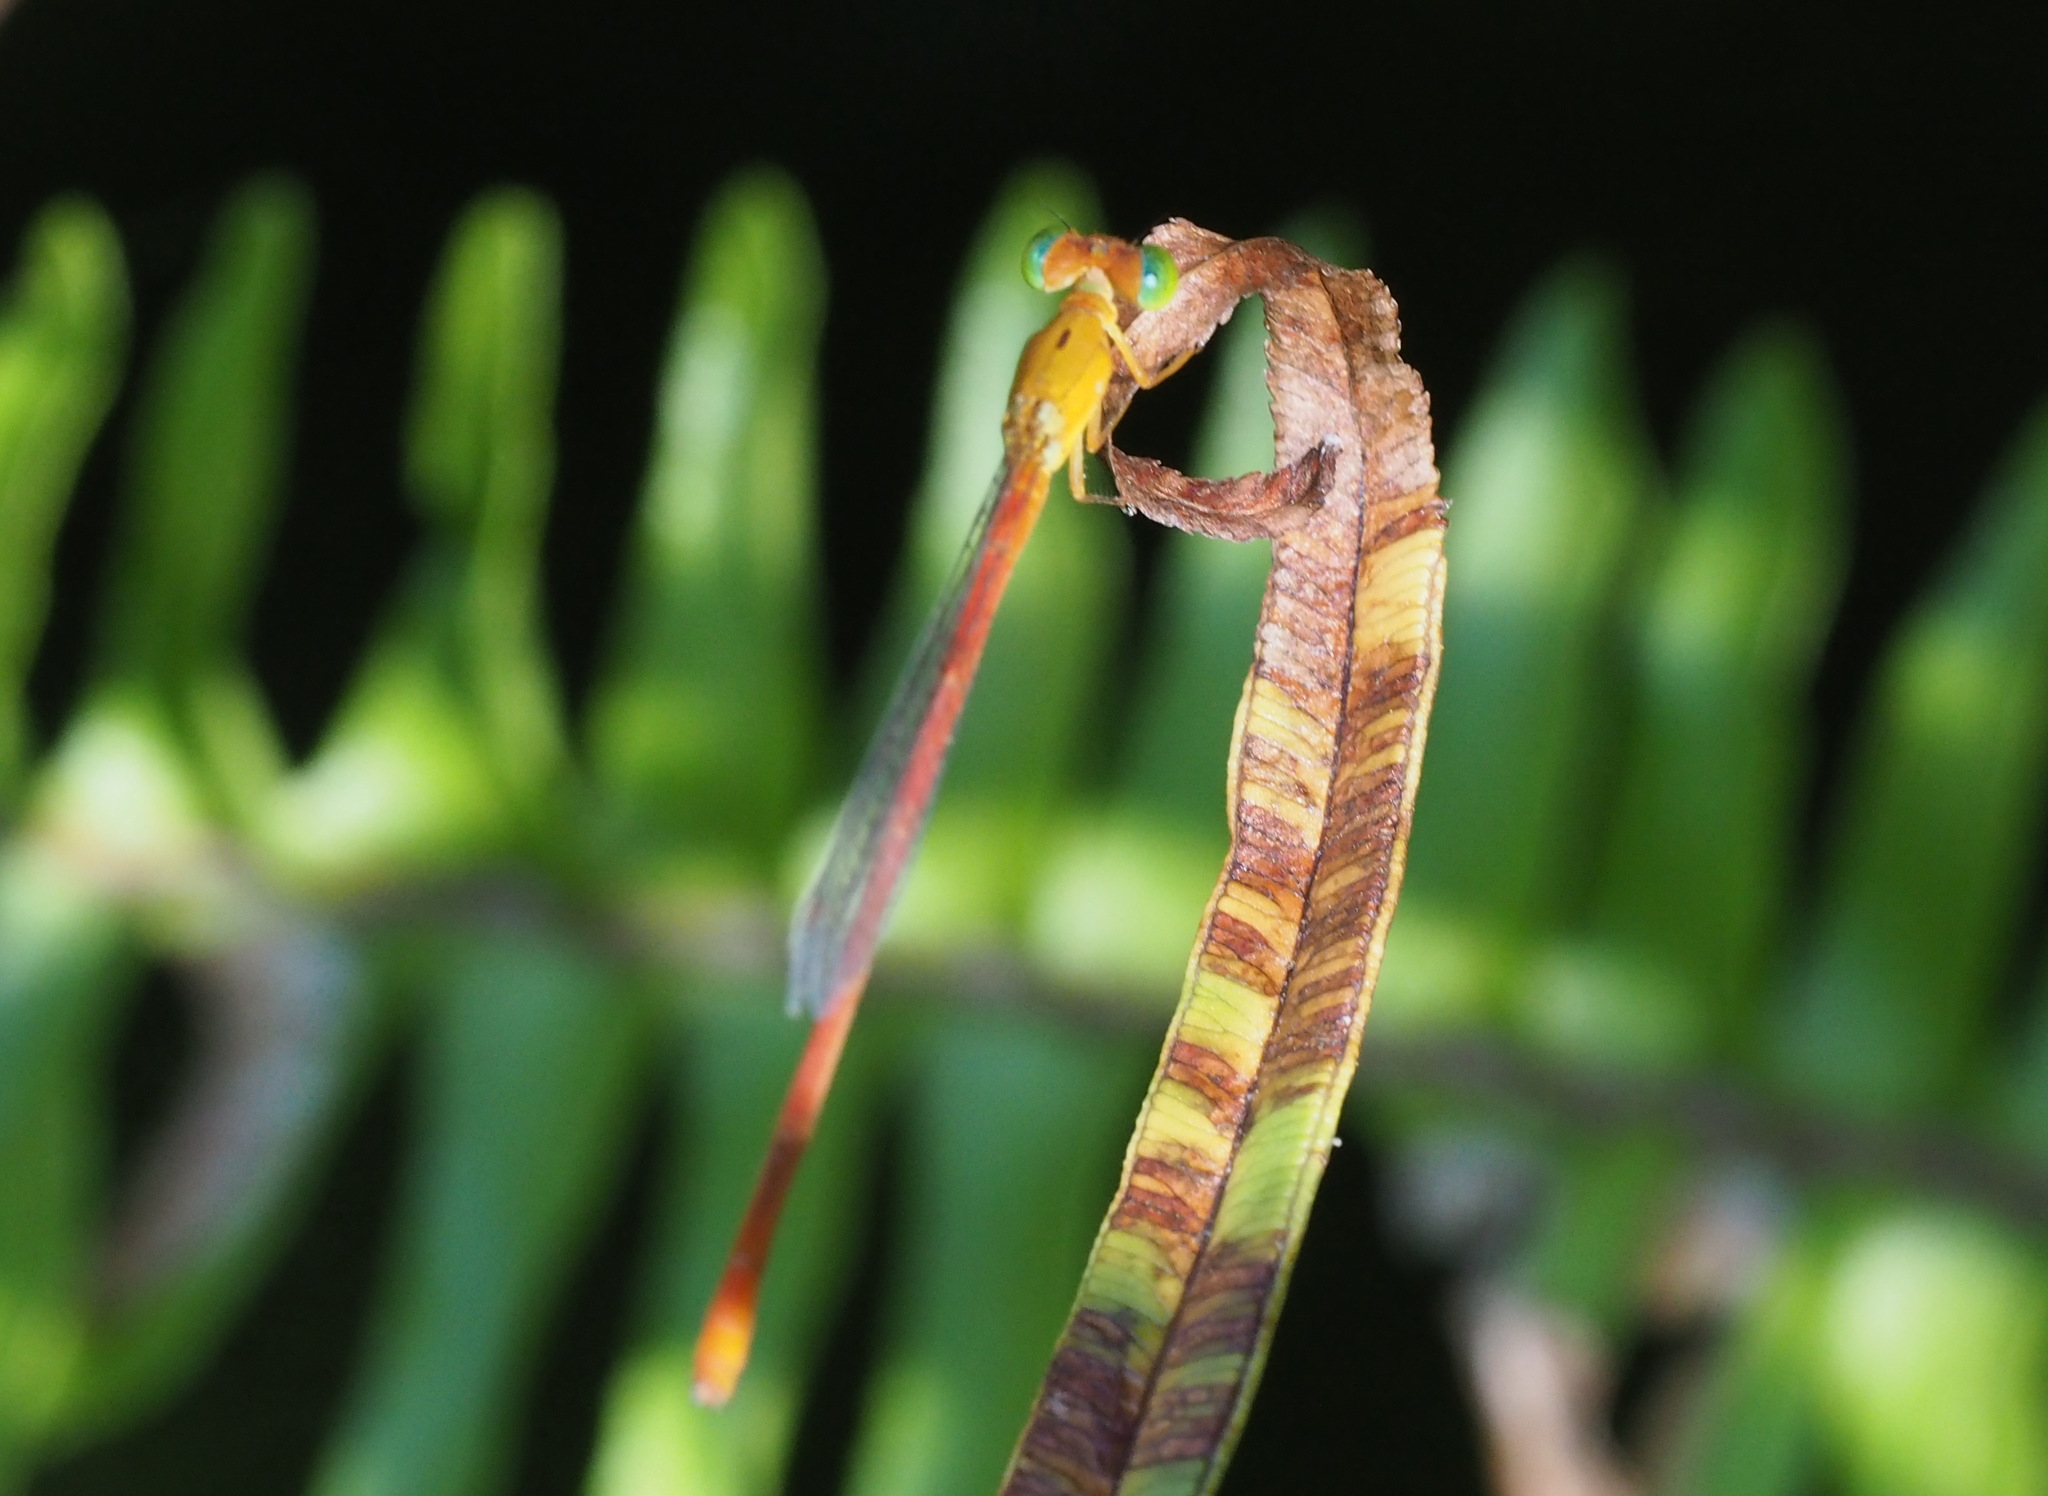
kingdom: Animalia
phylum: Arthropoda
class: Insecta
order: Odonata
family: Coenagrionidae
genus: Ceriagrion
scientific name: Ceriagrion auranticum
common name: Orange-tailed sprite
